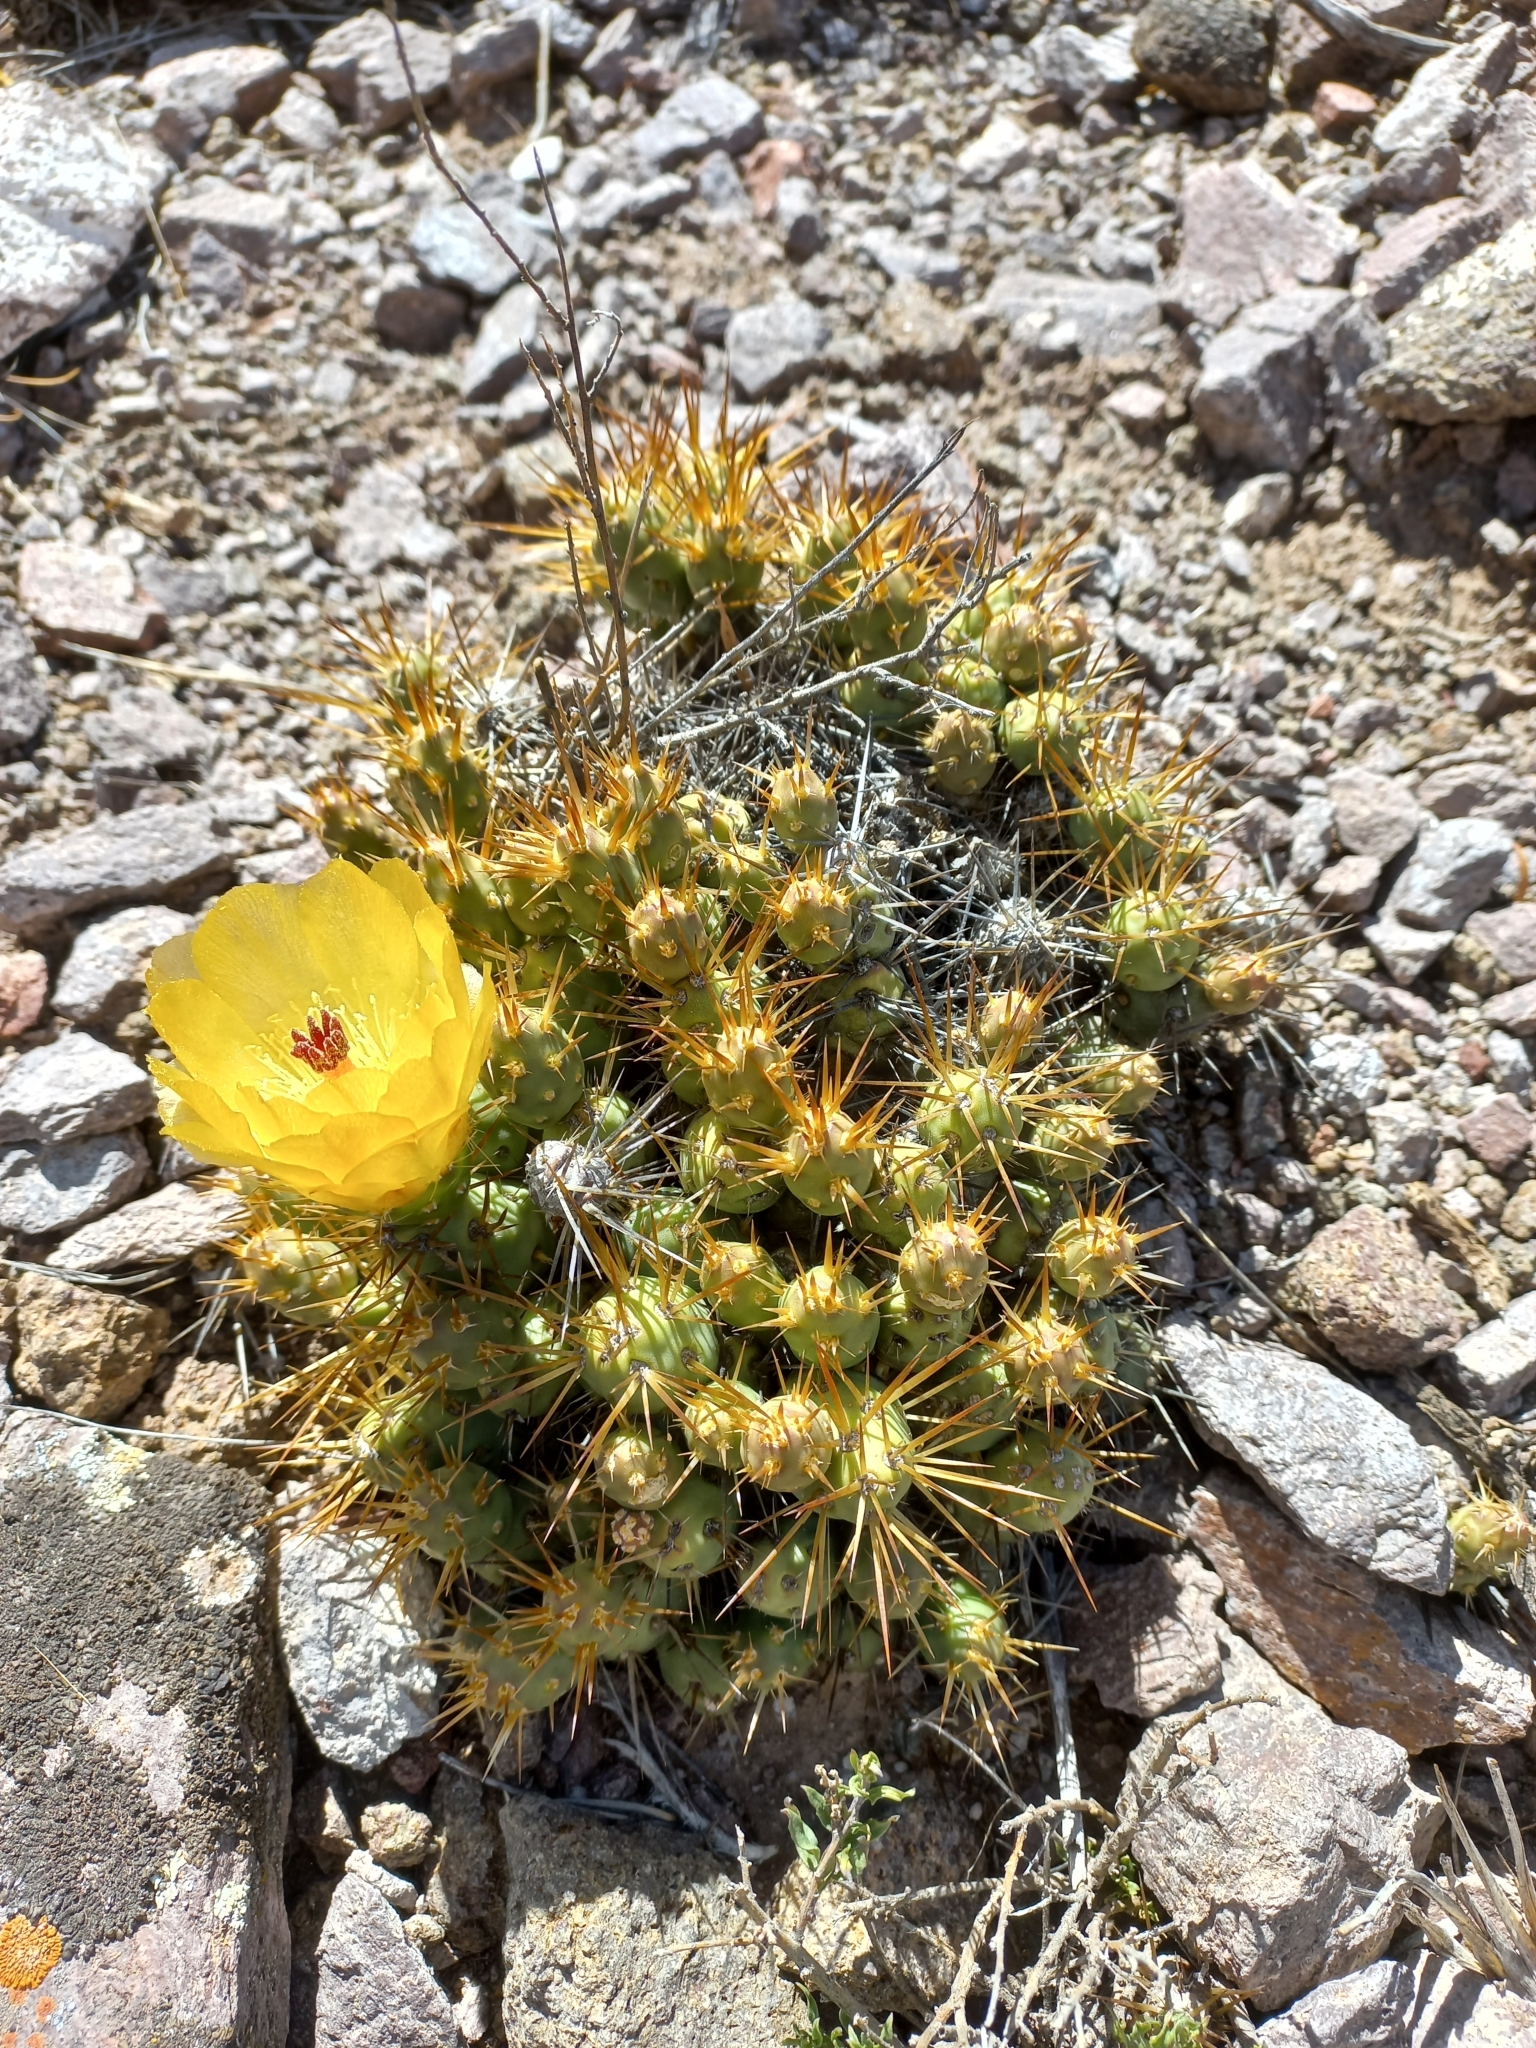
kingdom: Plantae
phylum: Tracheophyta
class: Magnoliopsida
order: Caryophyllales
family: Cactaceae
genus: Maihueniopsis
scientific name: Maihueniopsis ovata
